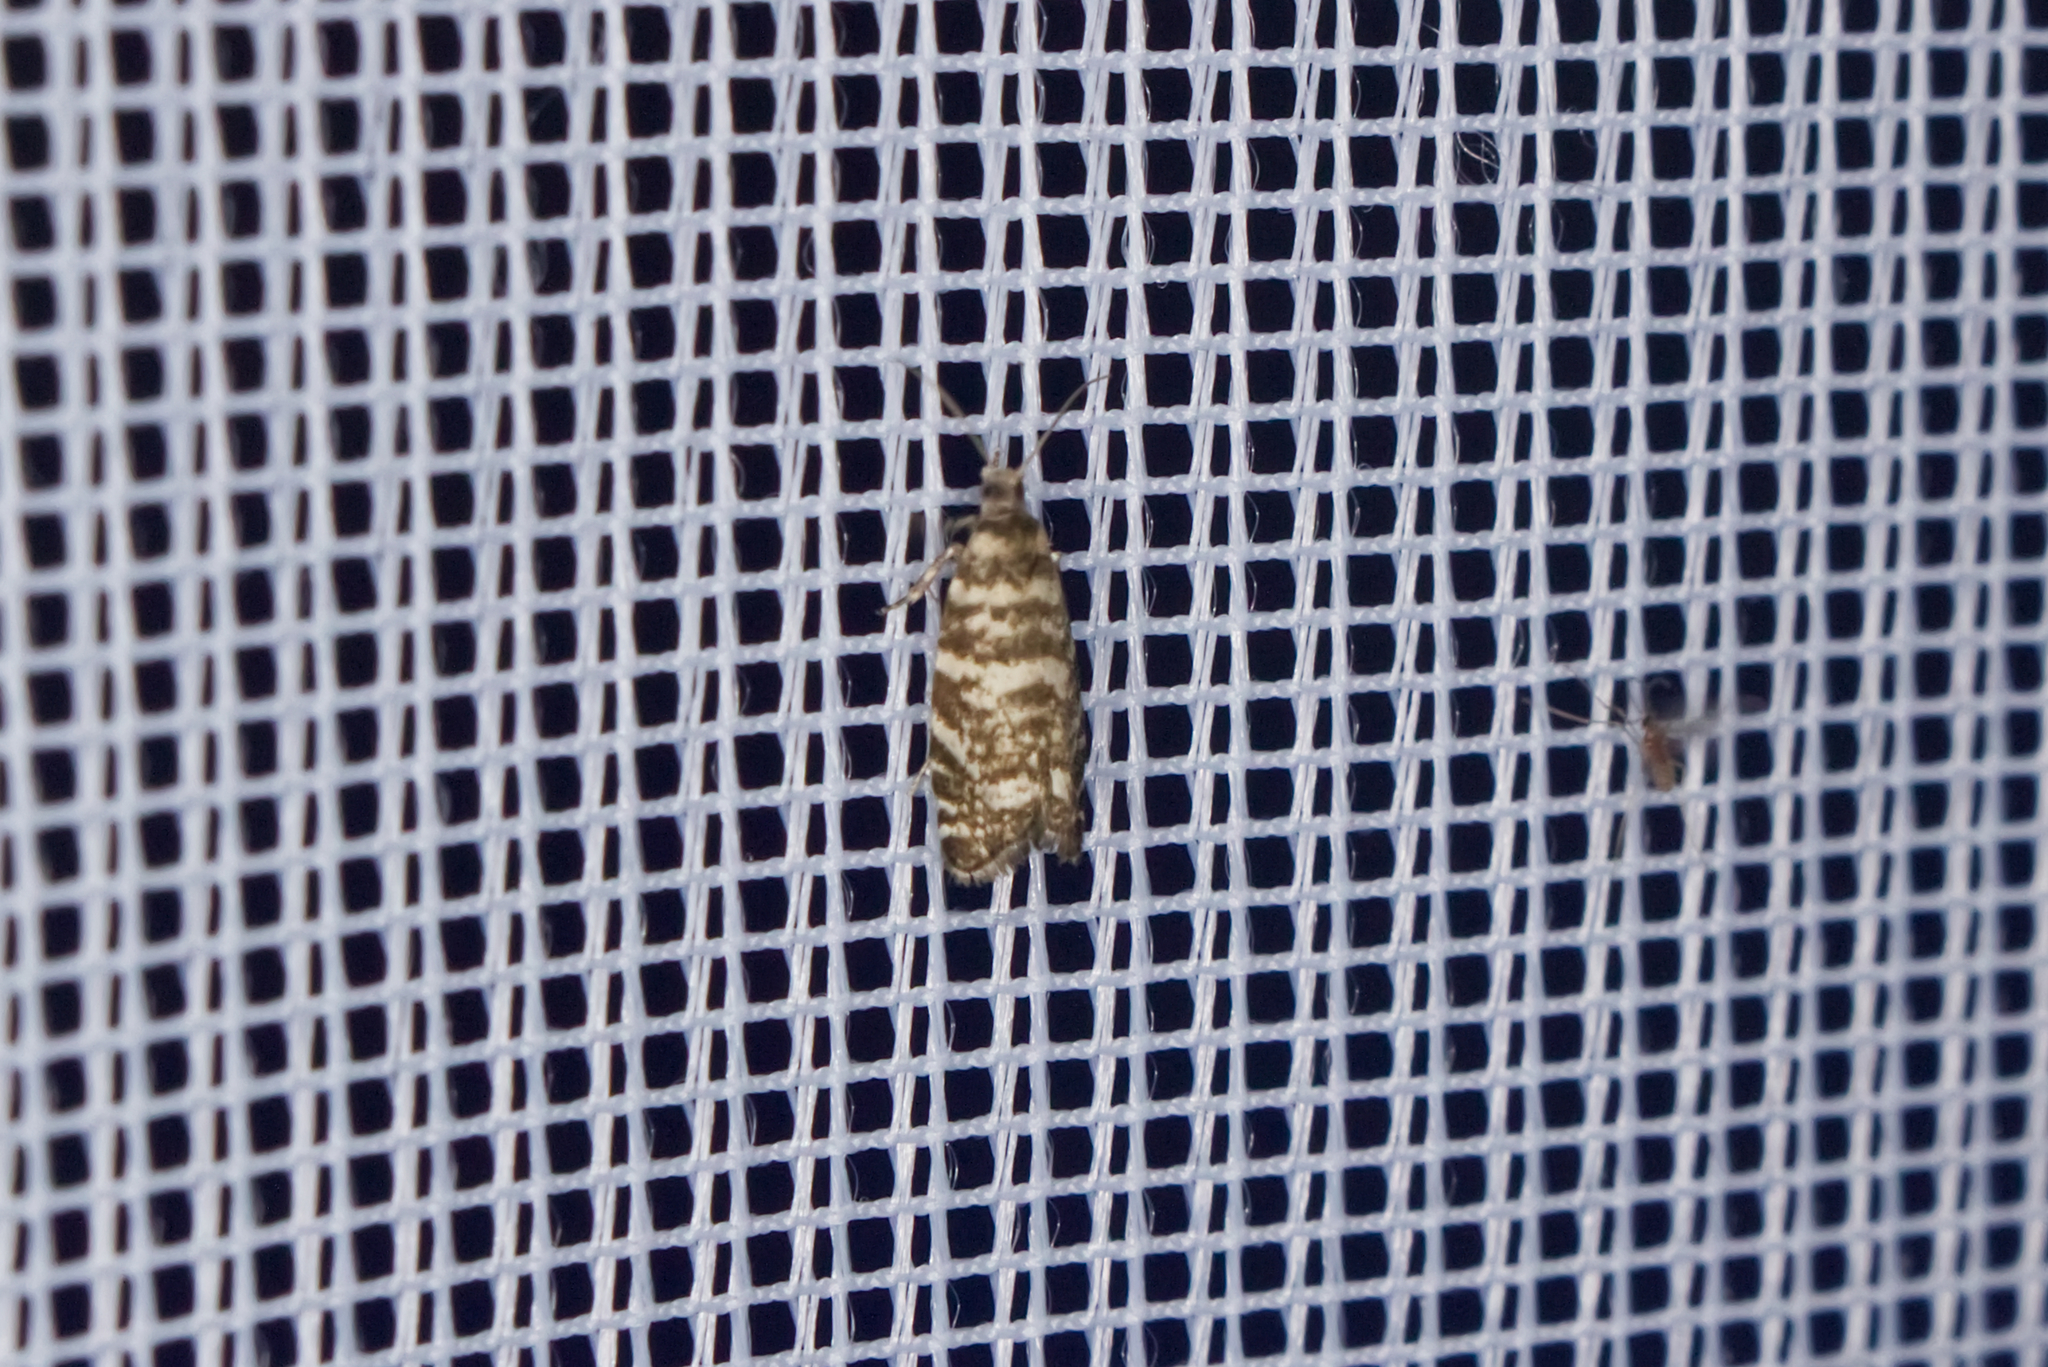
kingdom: Animalia
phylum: Arthropoda
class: Insecta
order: Lepidoptera
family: Tortricidae
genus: Epinotia
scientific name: Epinotia tedella
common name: Common spruce bell
